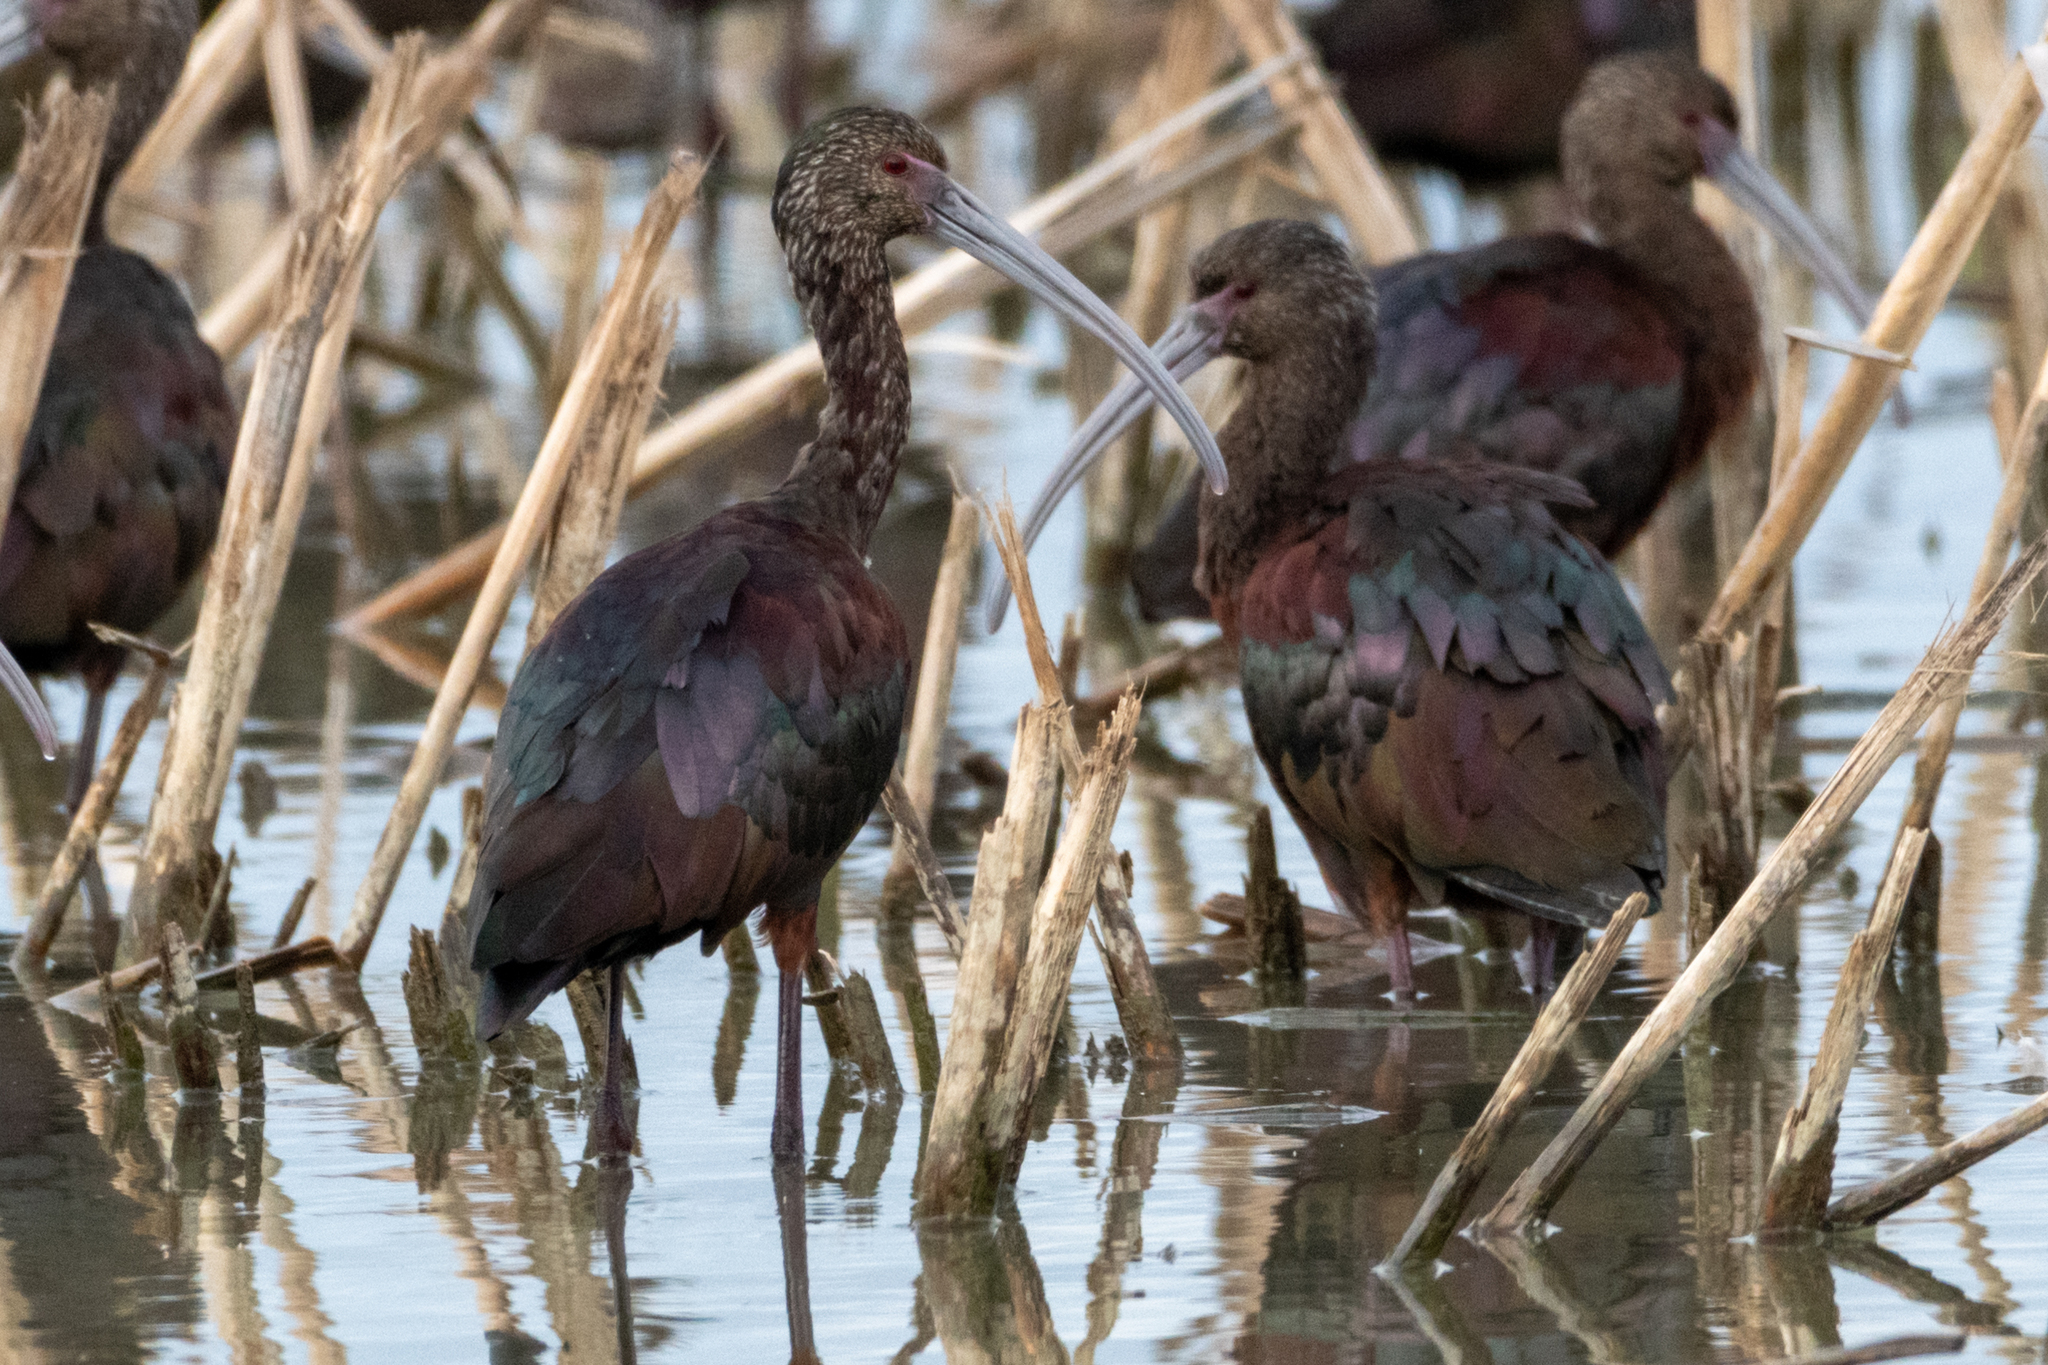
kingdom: Animalia
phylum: Chordata
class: Aves
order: Pelecaniformes
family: Threskiornithidae
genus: Plegadis
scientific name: Plegadis chihi
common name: White-faced ibis
